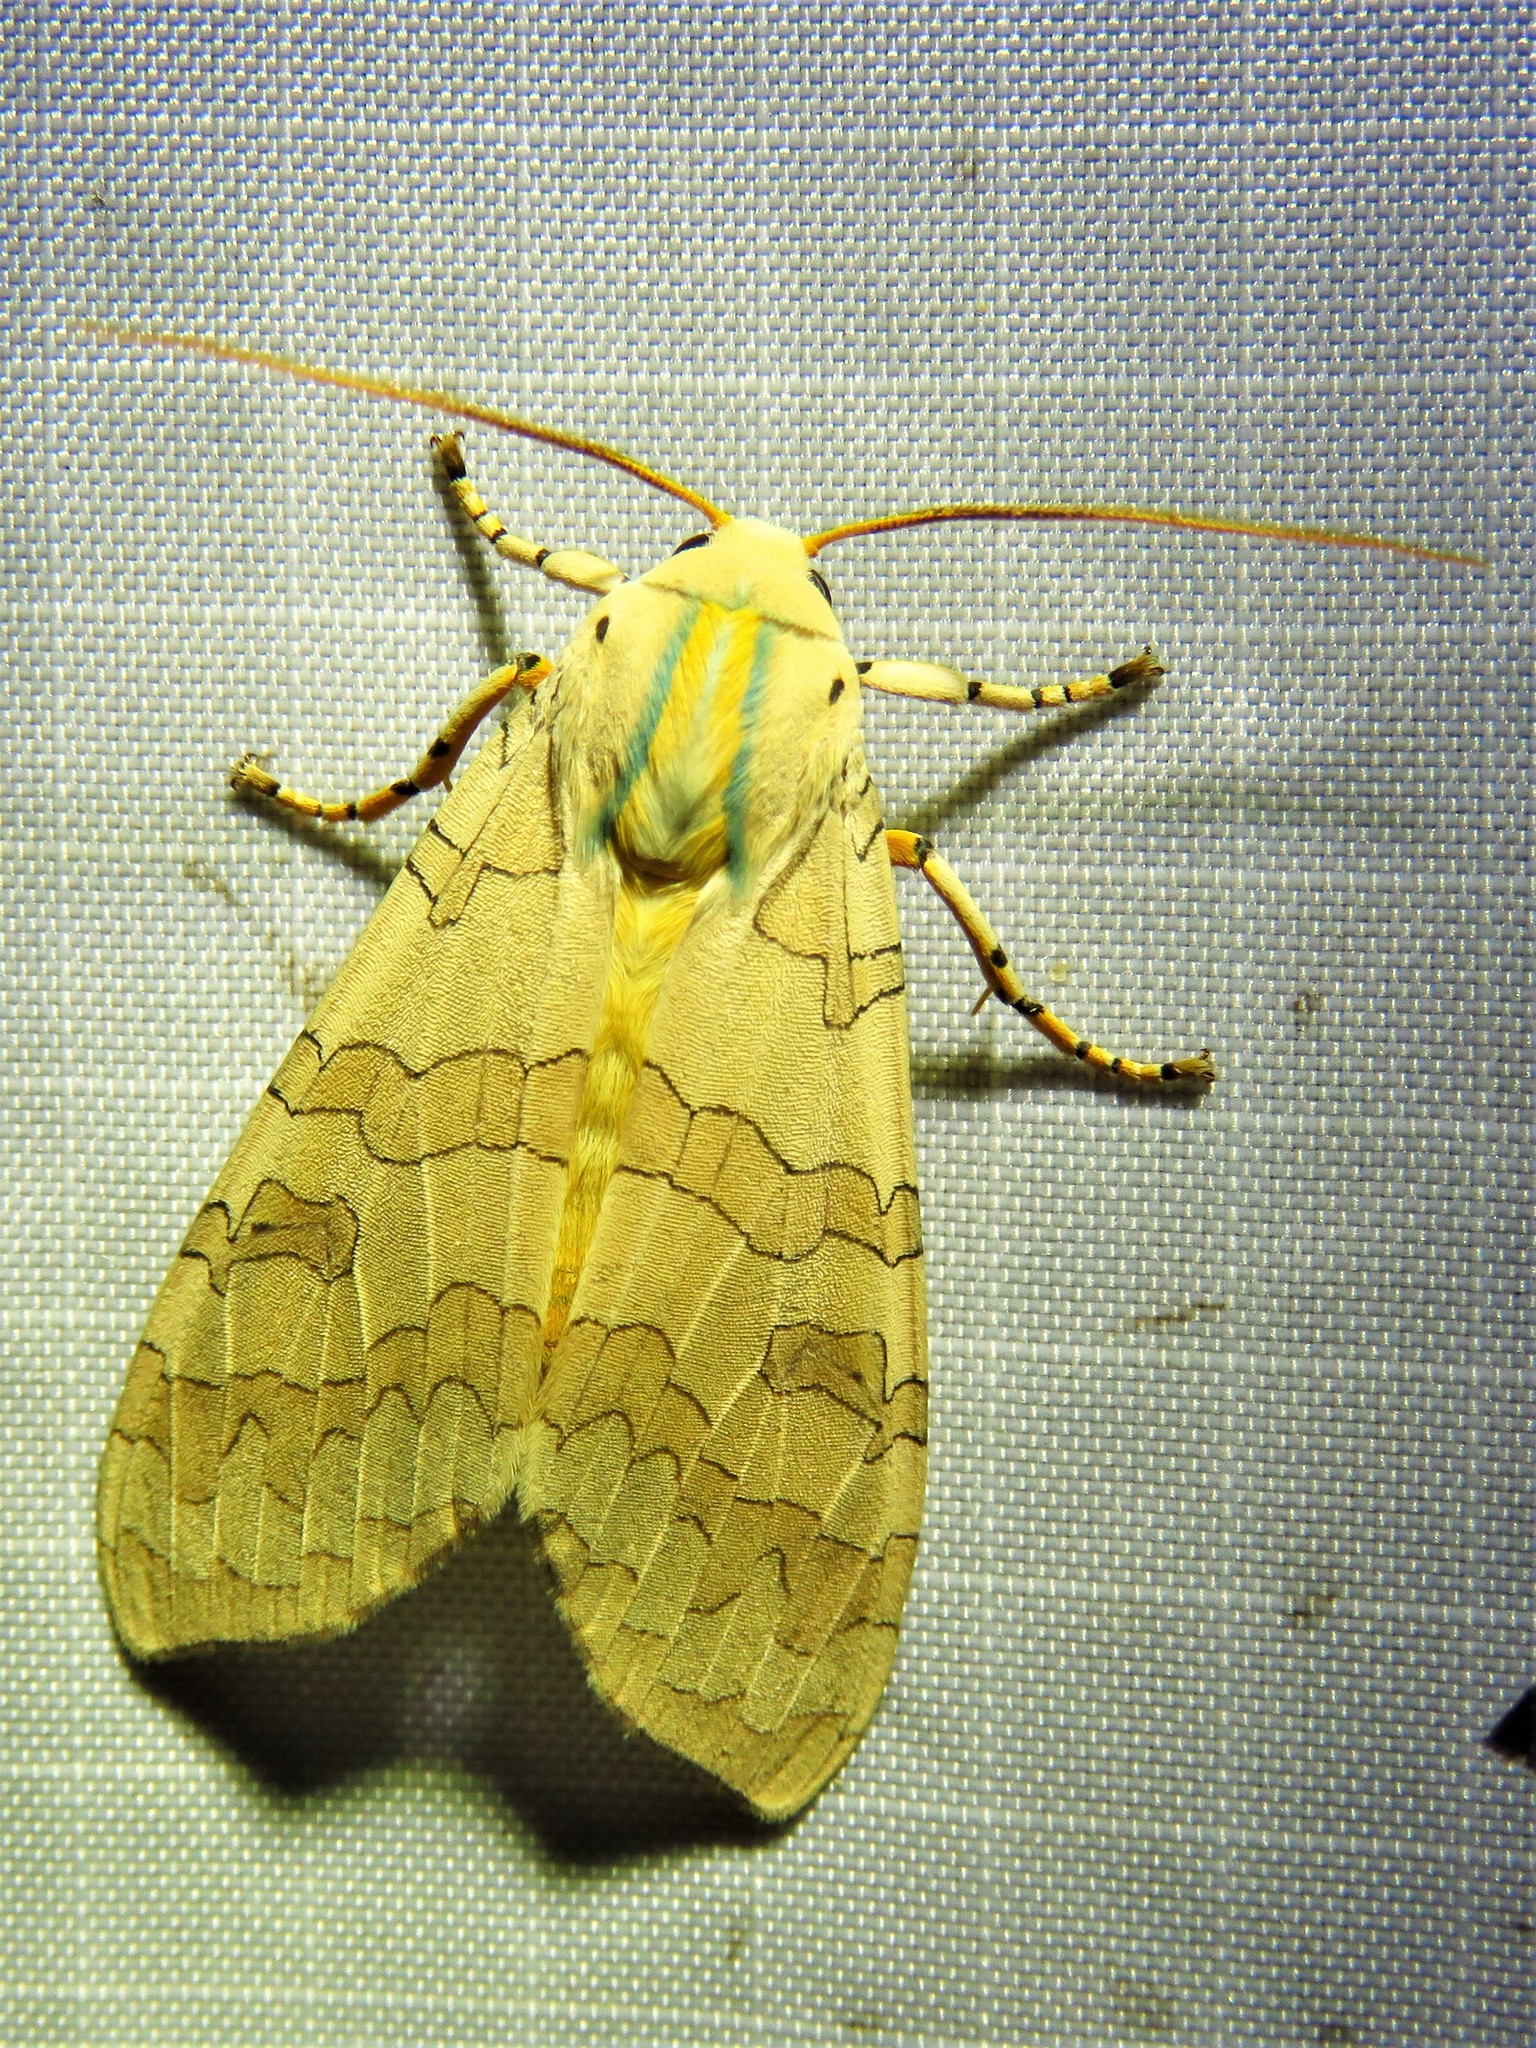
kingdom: Animalia
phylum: Arthropoda
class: Insecta
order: Lepidoptera
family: Erebidae
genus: Halysidota
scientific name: Halysidota
